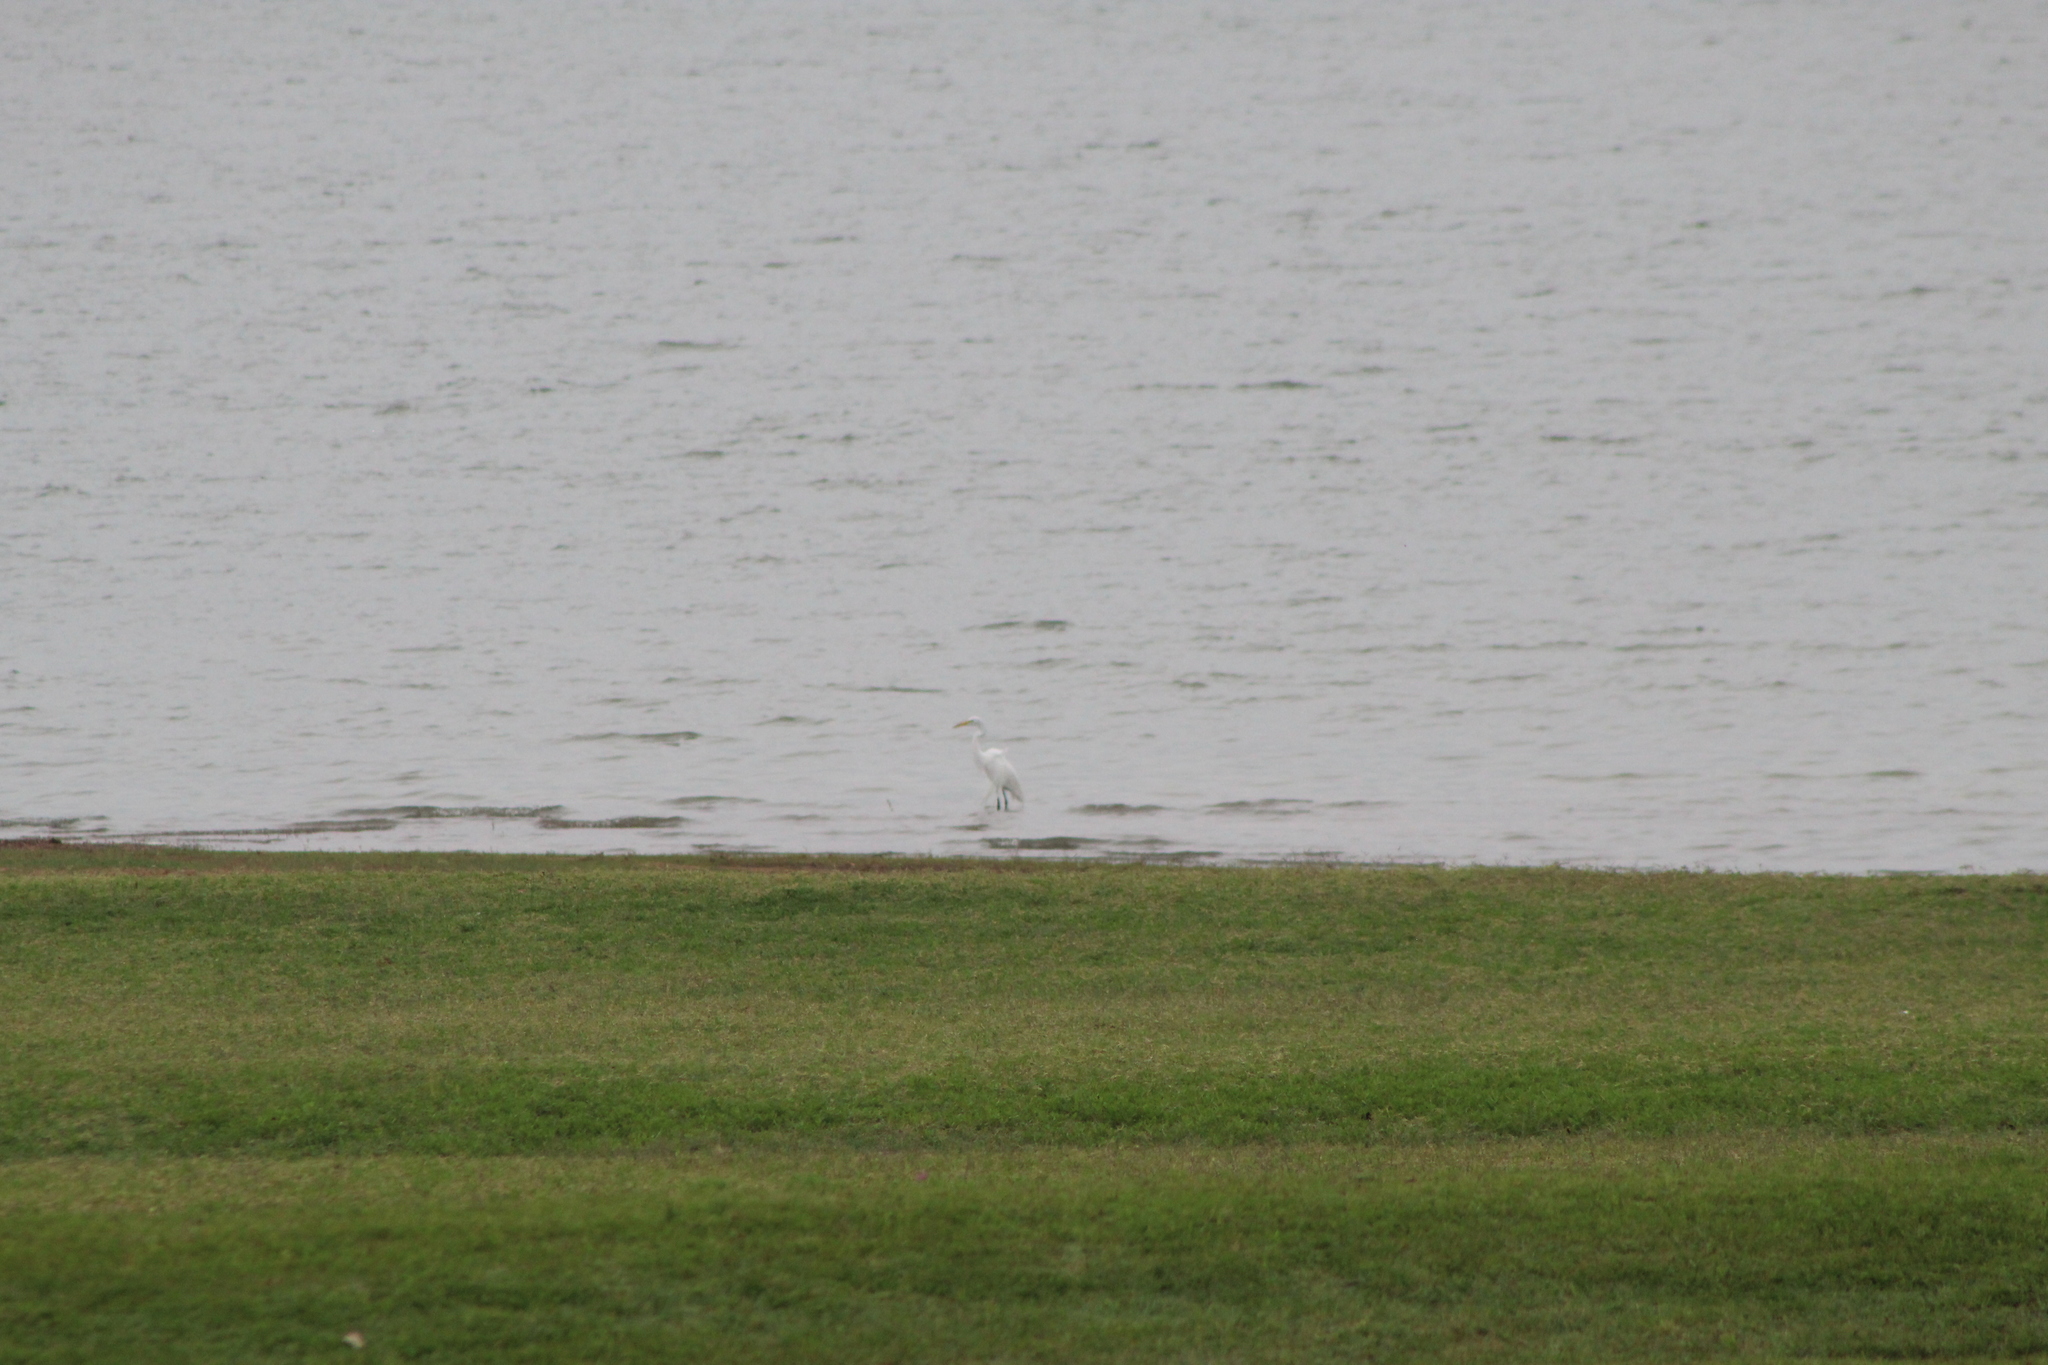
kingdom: Animalia
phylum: Chordata
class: Aves
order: Pelecaniformes
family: Ardeidae
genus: Ardea
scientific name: Ardea alba
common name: Great egret
